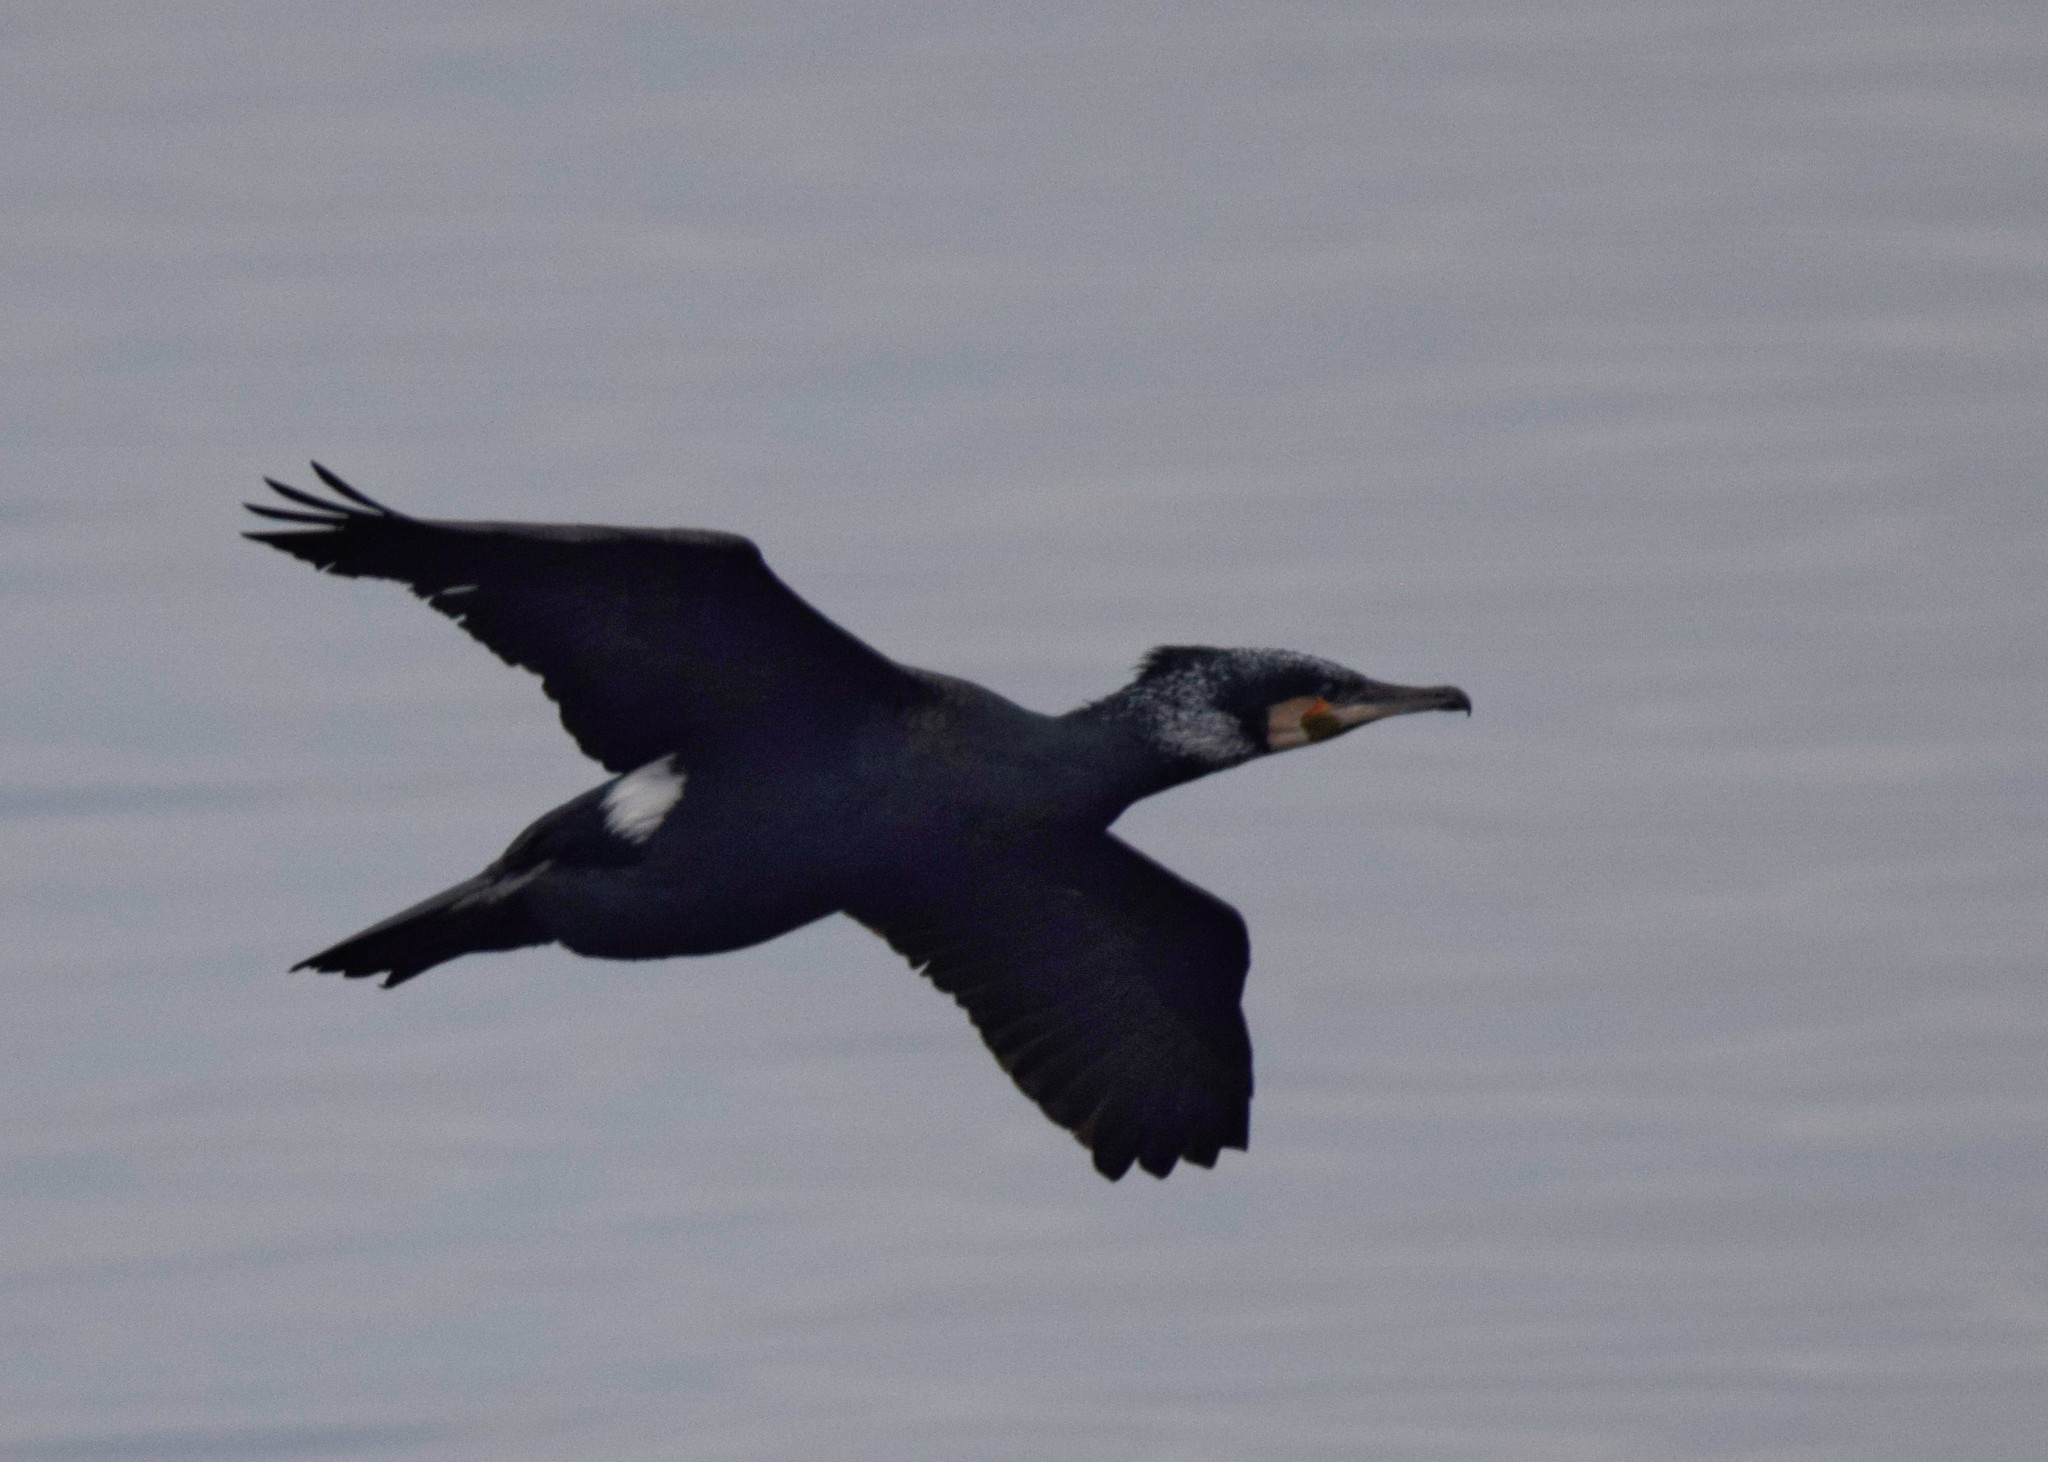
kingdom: Animalia
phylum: Chordata
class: Aves
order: Suliformes
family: Phalacrocoracidae
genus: Phalacrocorax
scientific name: Phalacrocorax carbo
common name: Great cormorant
